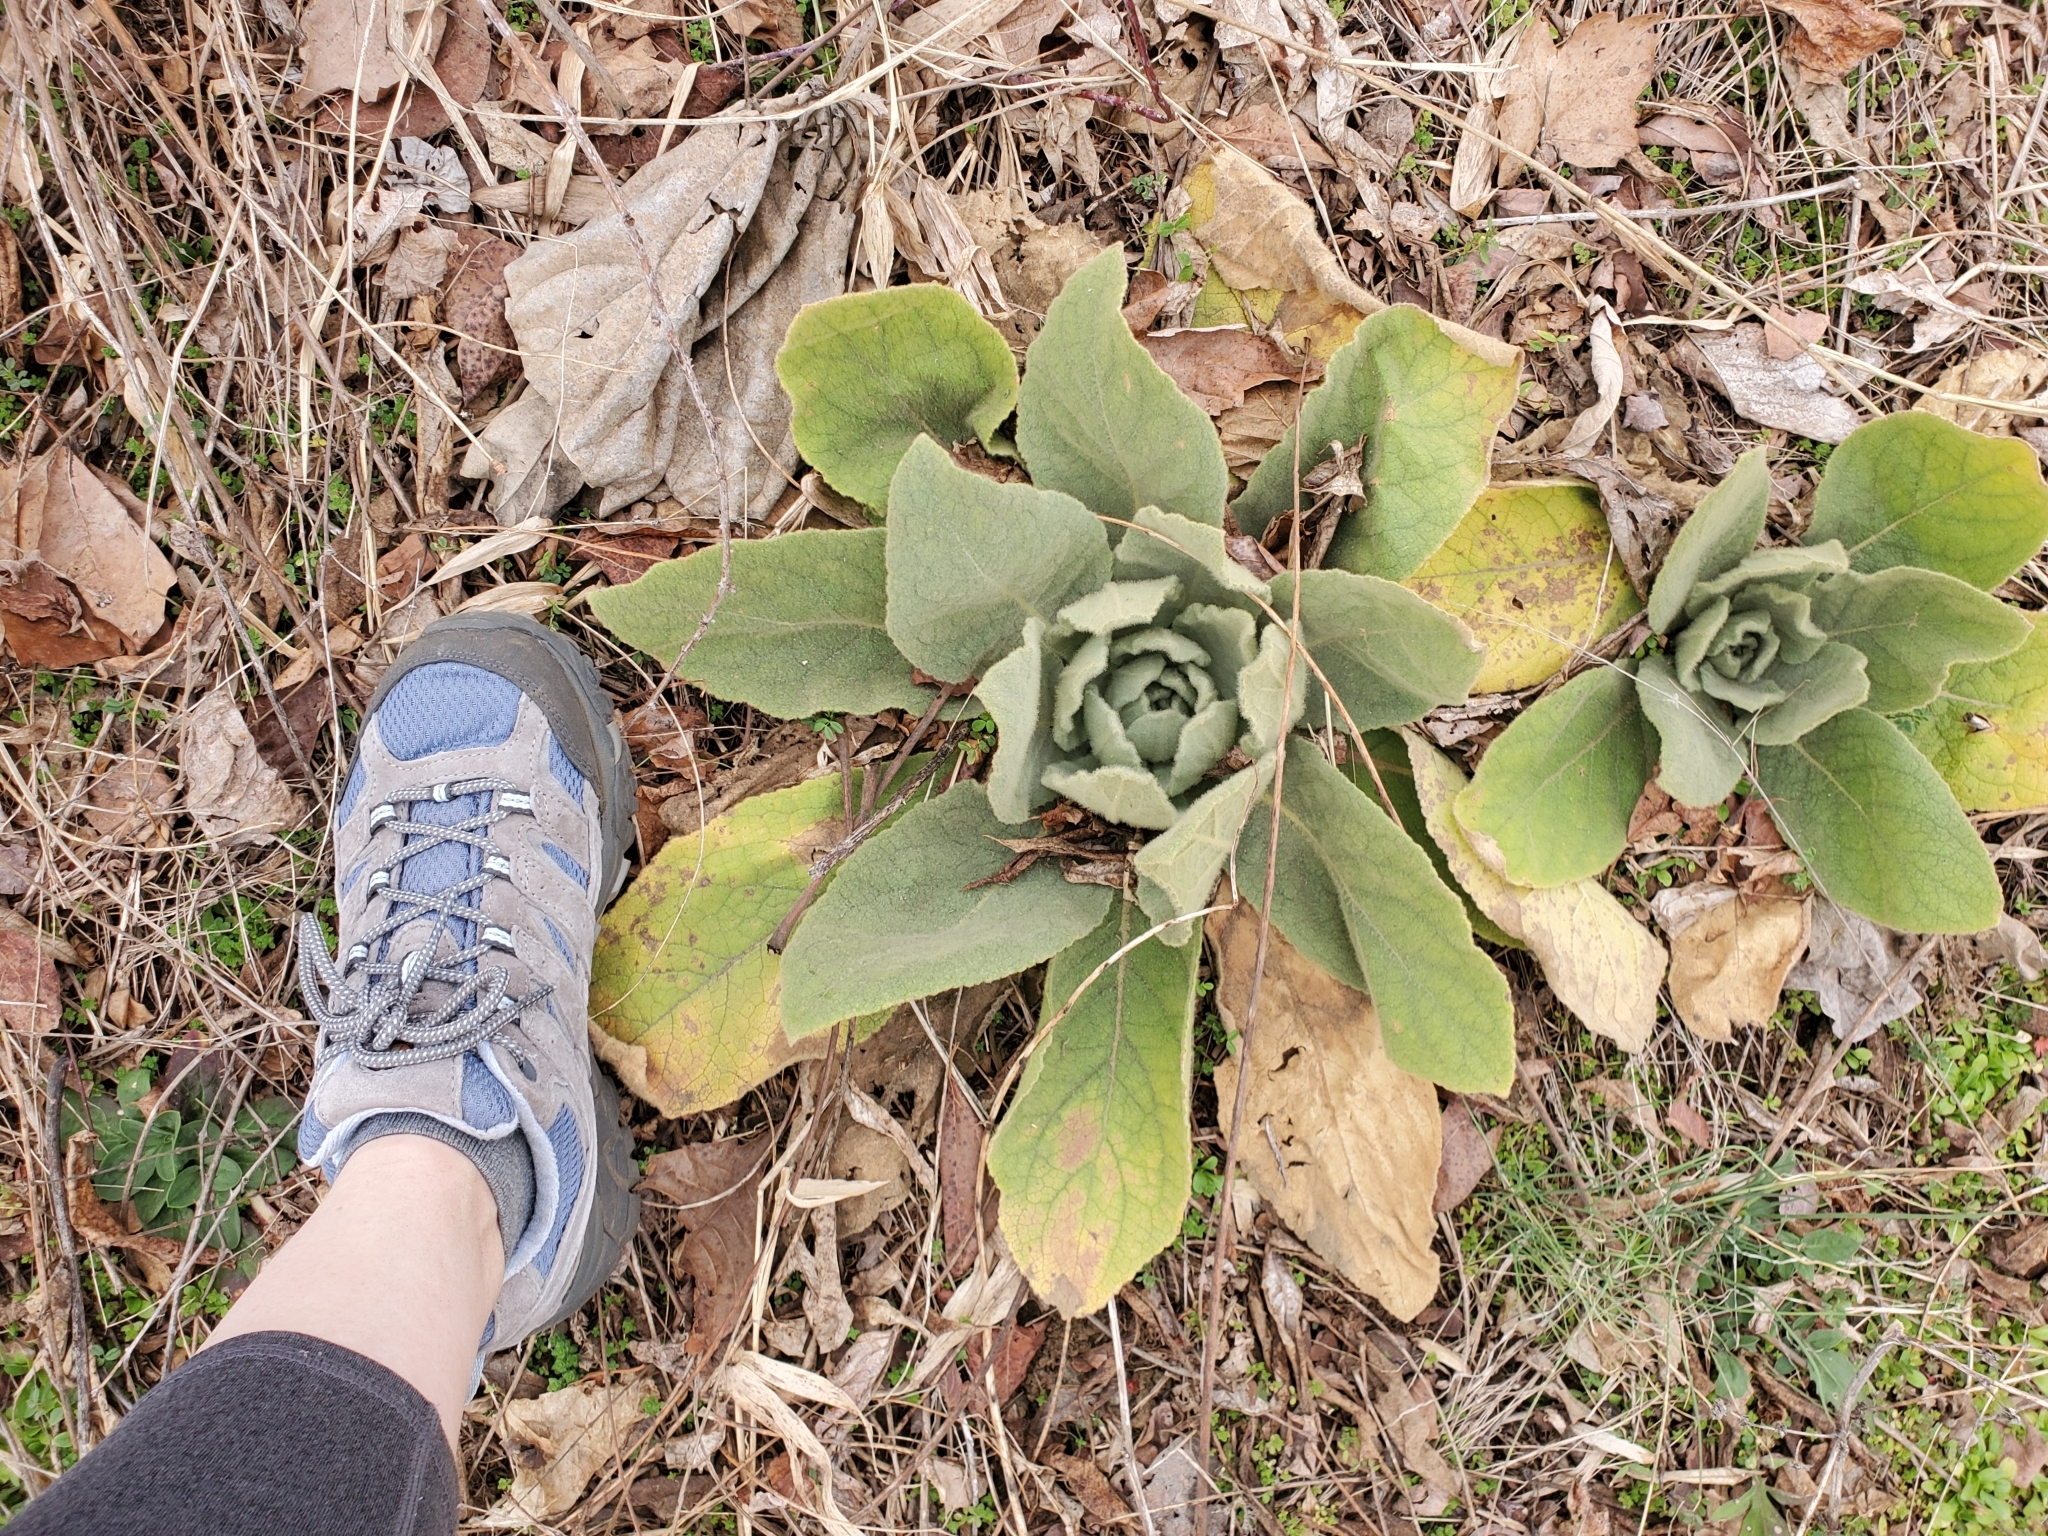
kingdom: Plantae
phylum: Tracheophyta
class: Magnoliopsida
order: Lamiales
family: Scrophulariaceae
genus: Verbascum
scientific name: Verbascum thapsus
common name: Common mullein
